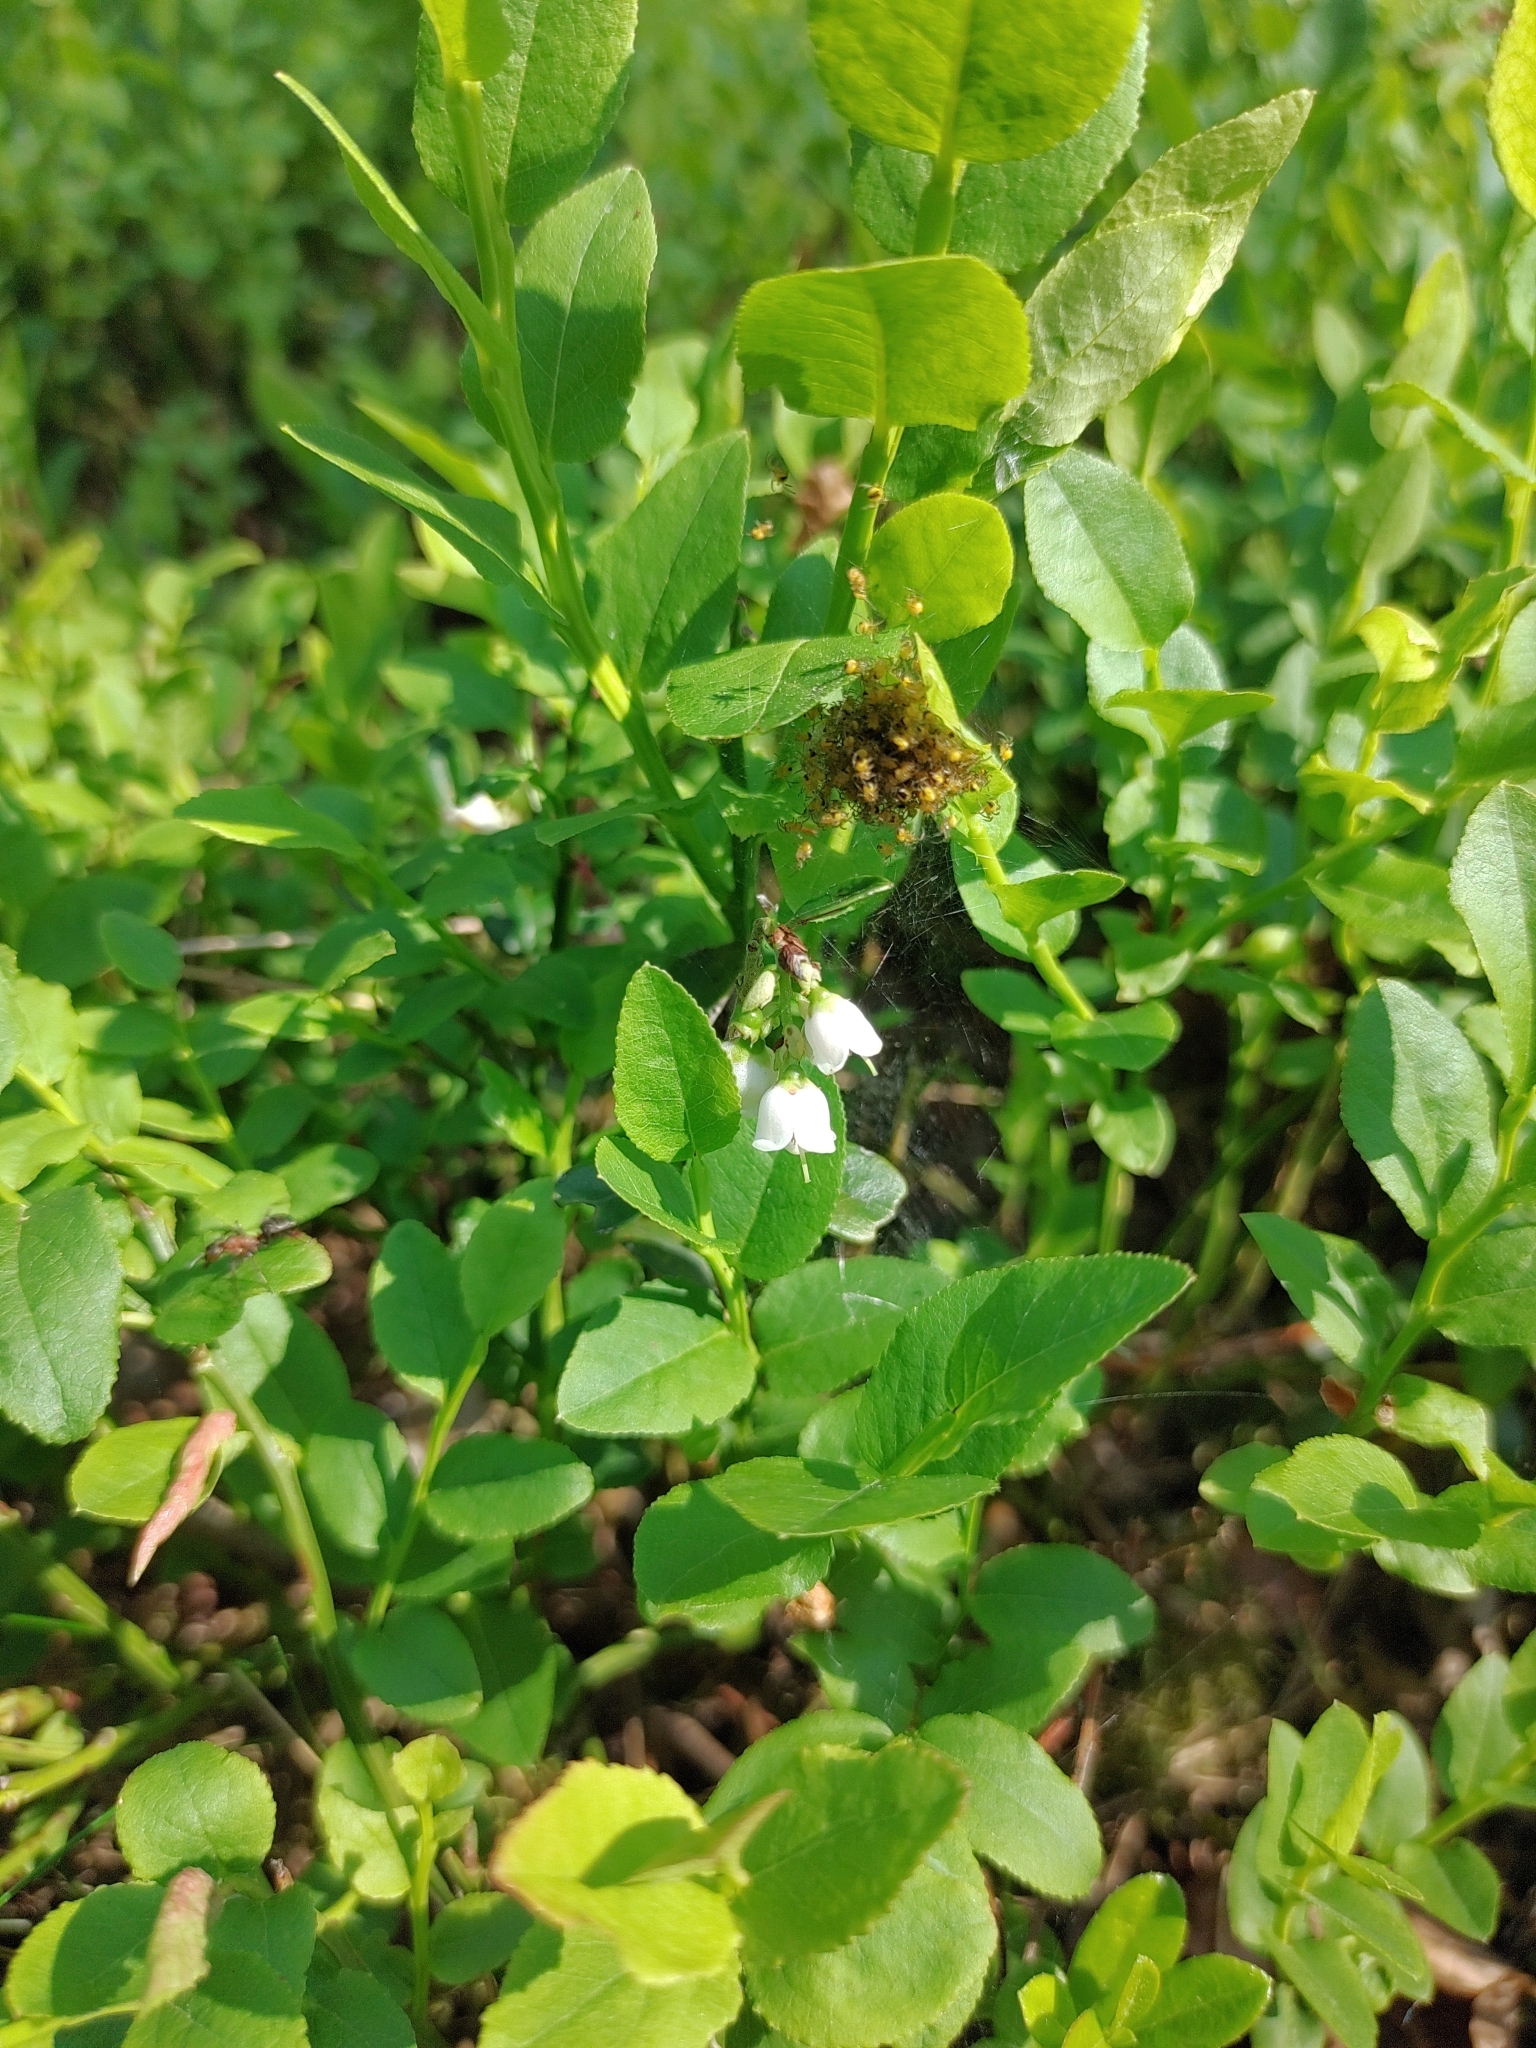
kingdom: Plantae
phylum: Tracheophyta
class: Magnoliopsida
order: Ericales
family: Ericaceae
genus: Vaccinium
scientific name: Vaccinium myrtillus
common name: Bilberry
